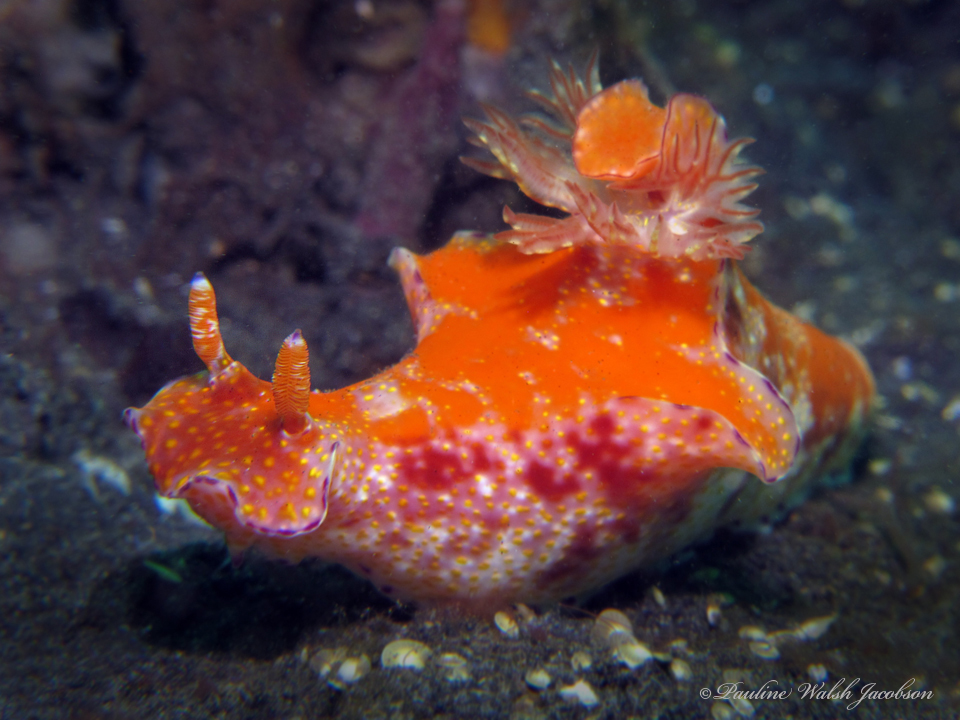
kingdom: Animalia
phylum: Mollusca
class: Gastropoda
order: Nudibranchia
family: Chromodorididae
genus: Ceratosoma
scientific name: Ceratosoma gracillimum
